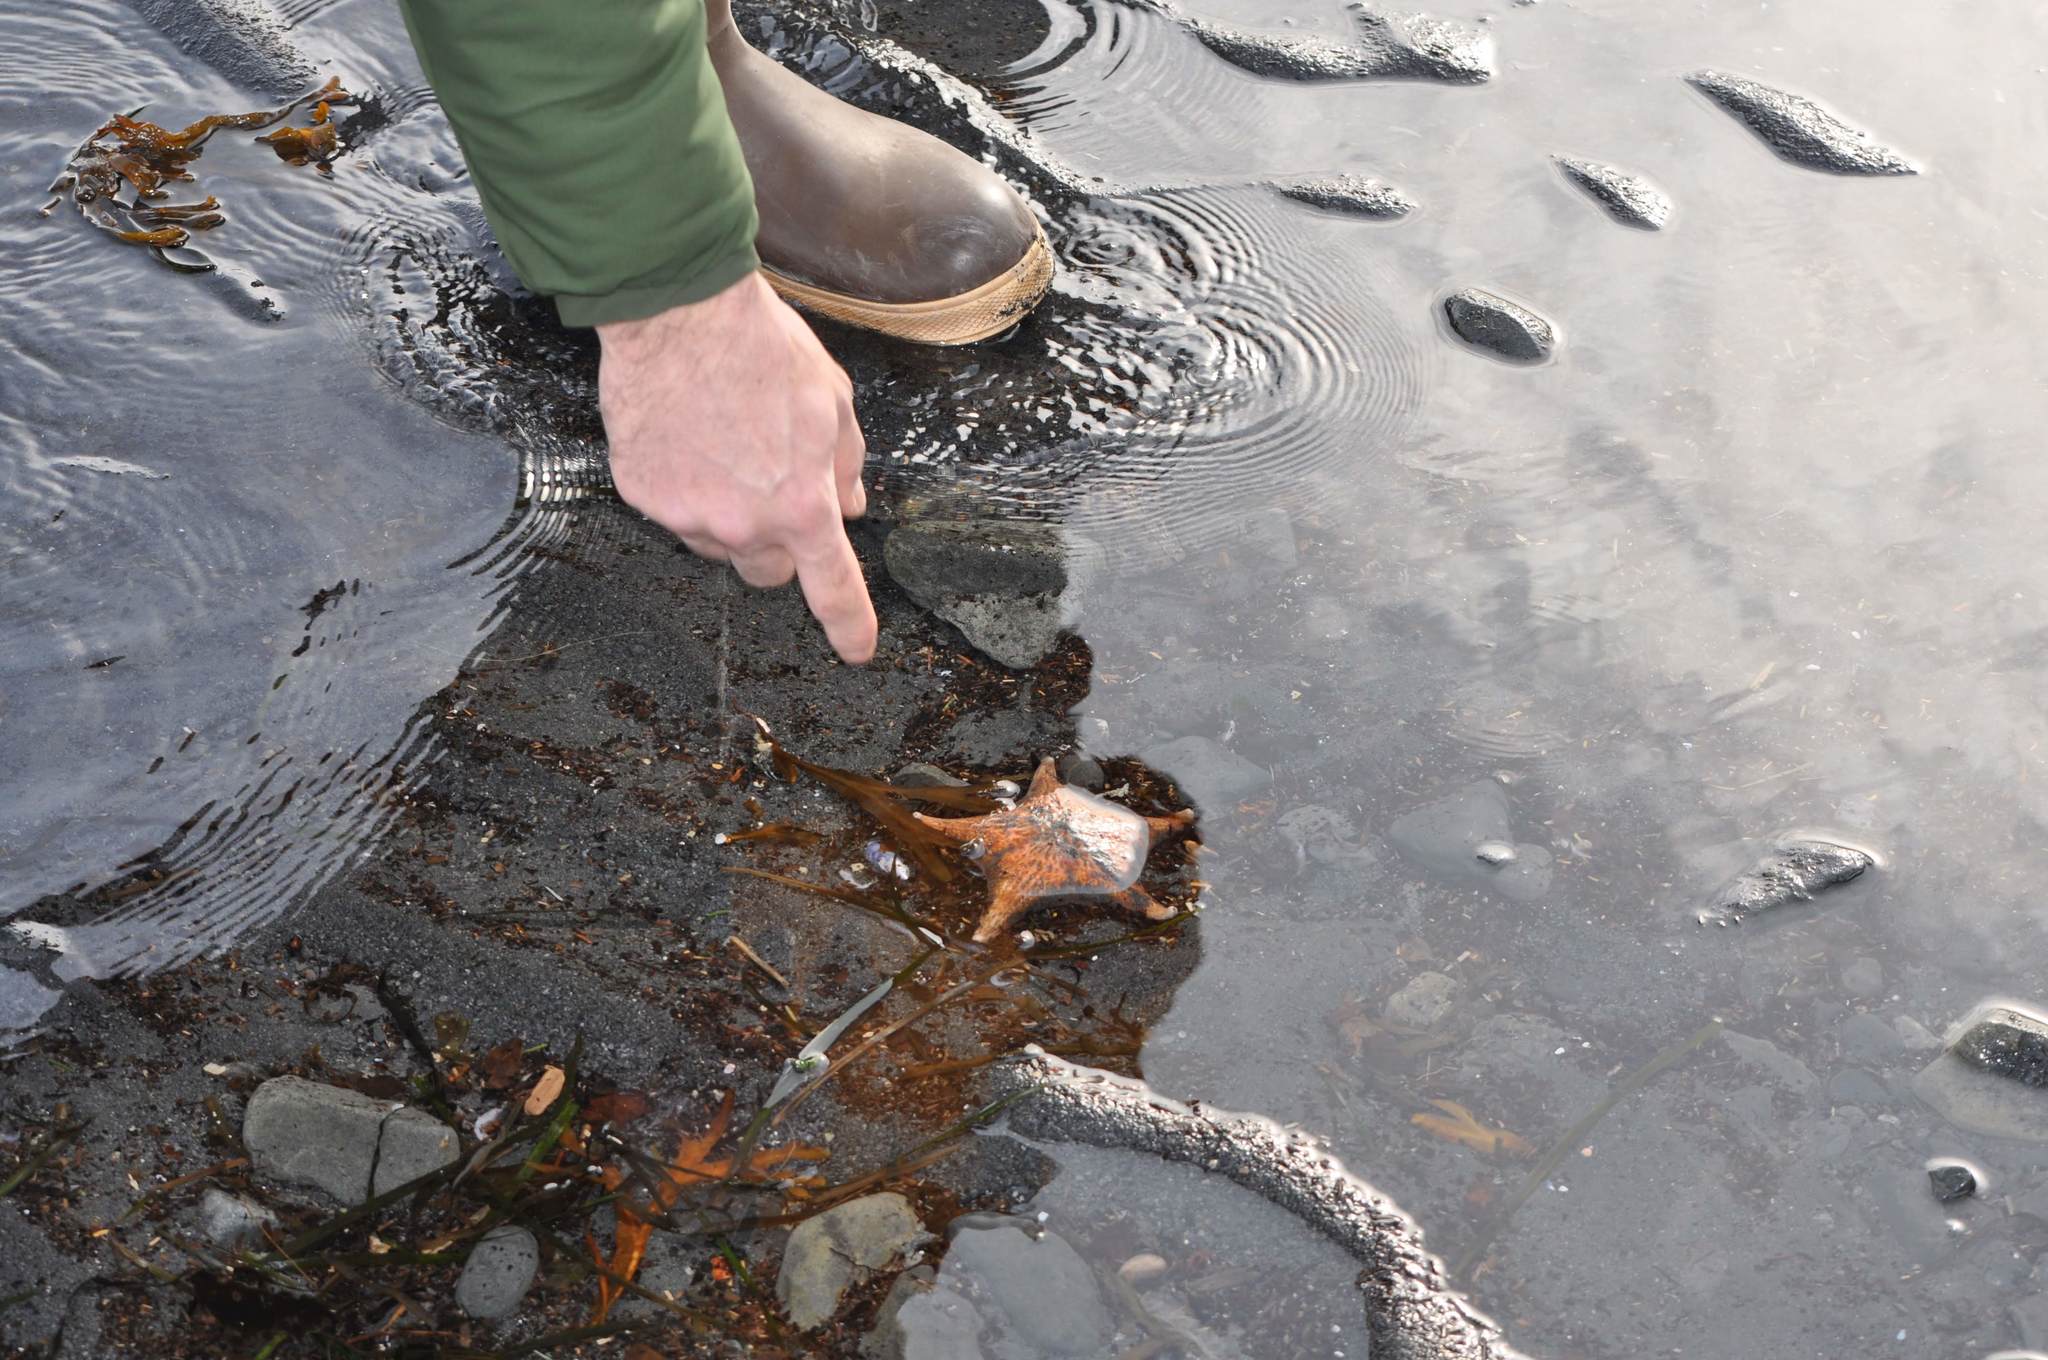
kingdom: Animalia
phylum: Echinodermata
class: Asteroidea
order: Valvatida
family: Asteropseidae
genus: Dermasterias
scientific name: Dermasterias imbricata
